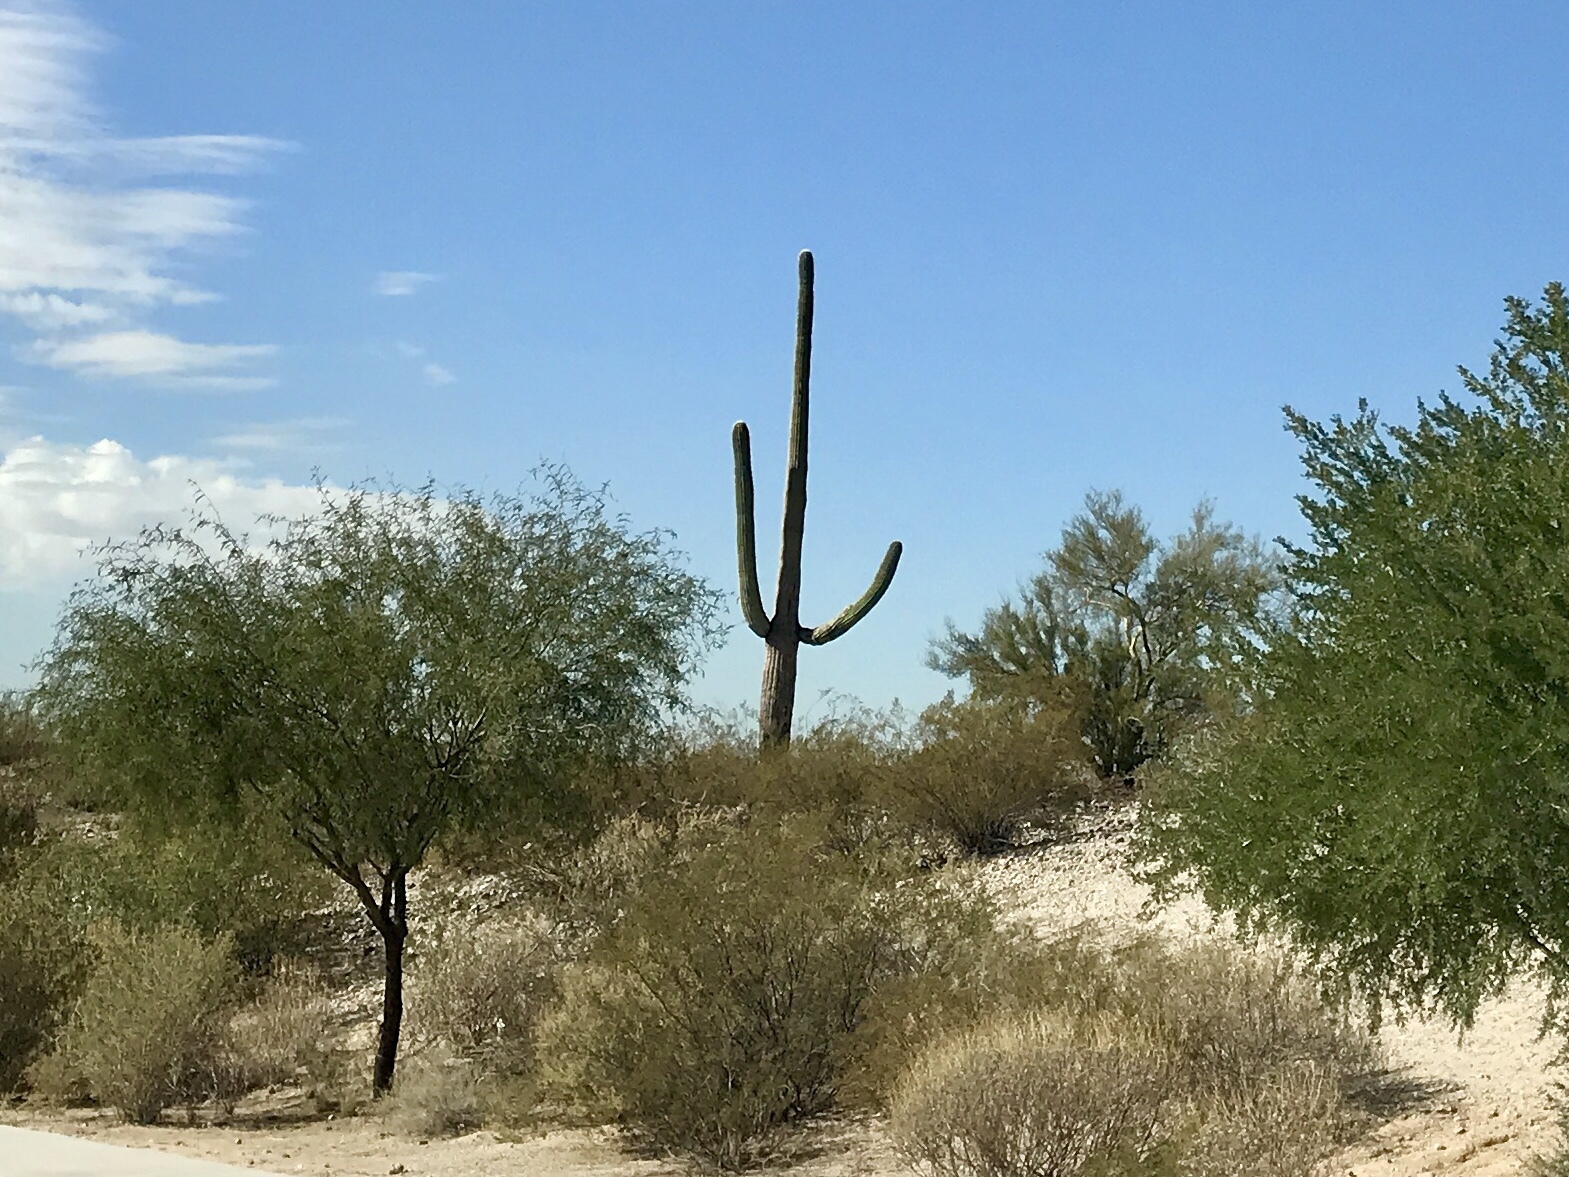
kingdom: Plantae
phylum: Tracheophyta
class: Magnoliopsida
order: Caryophyllales
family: Cactaceae
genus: Carnegiea
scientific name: Carnegiea gigantea
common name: Saguaro
